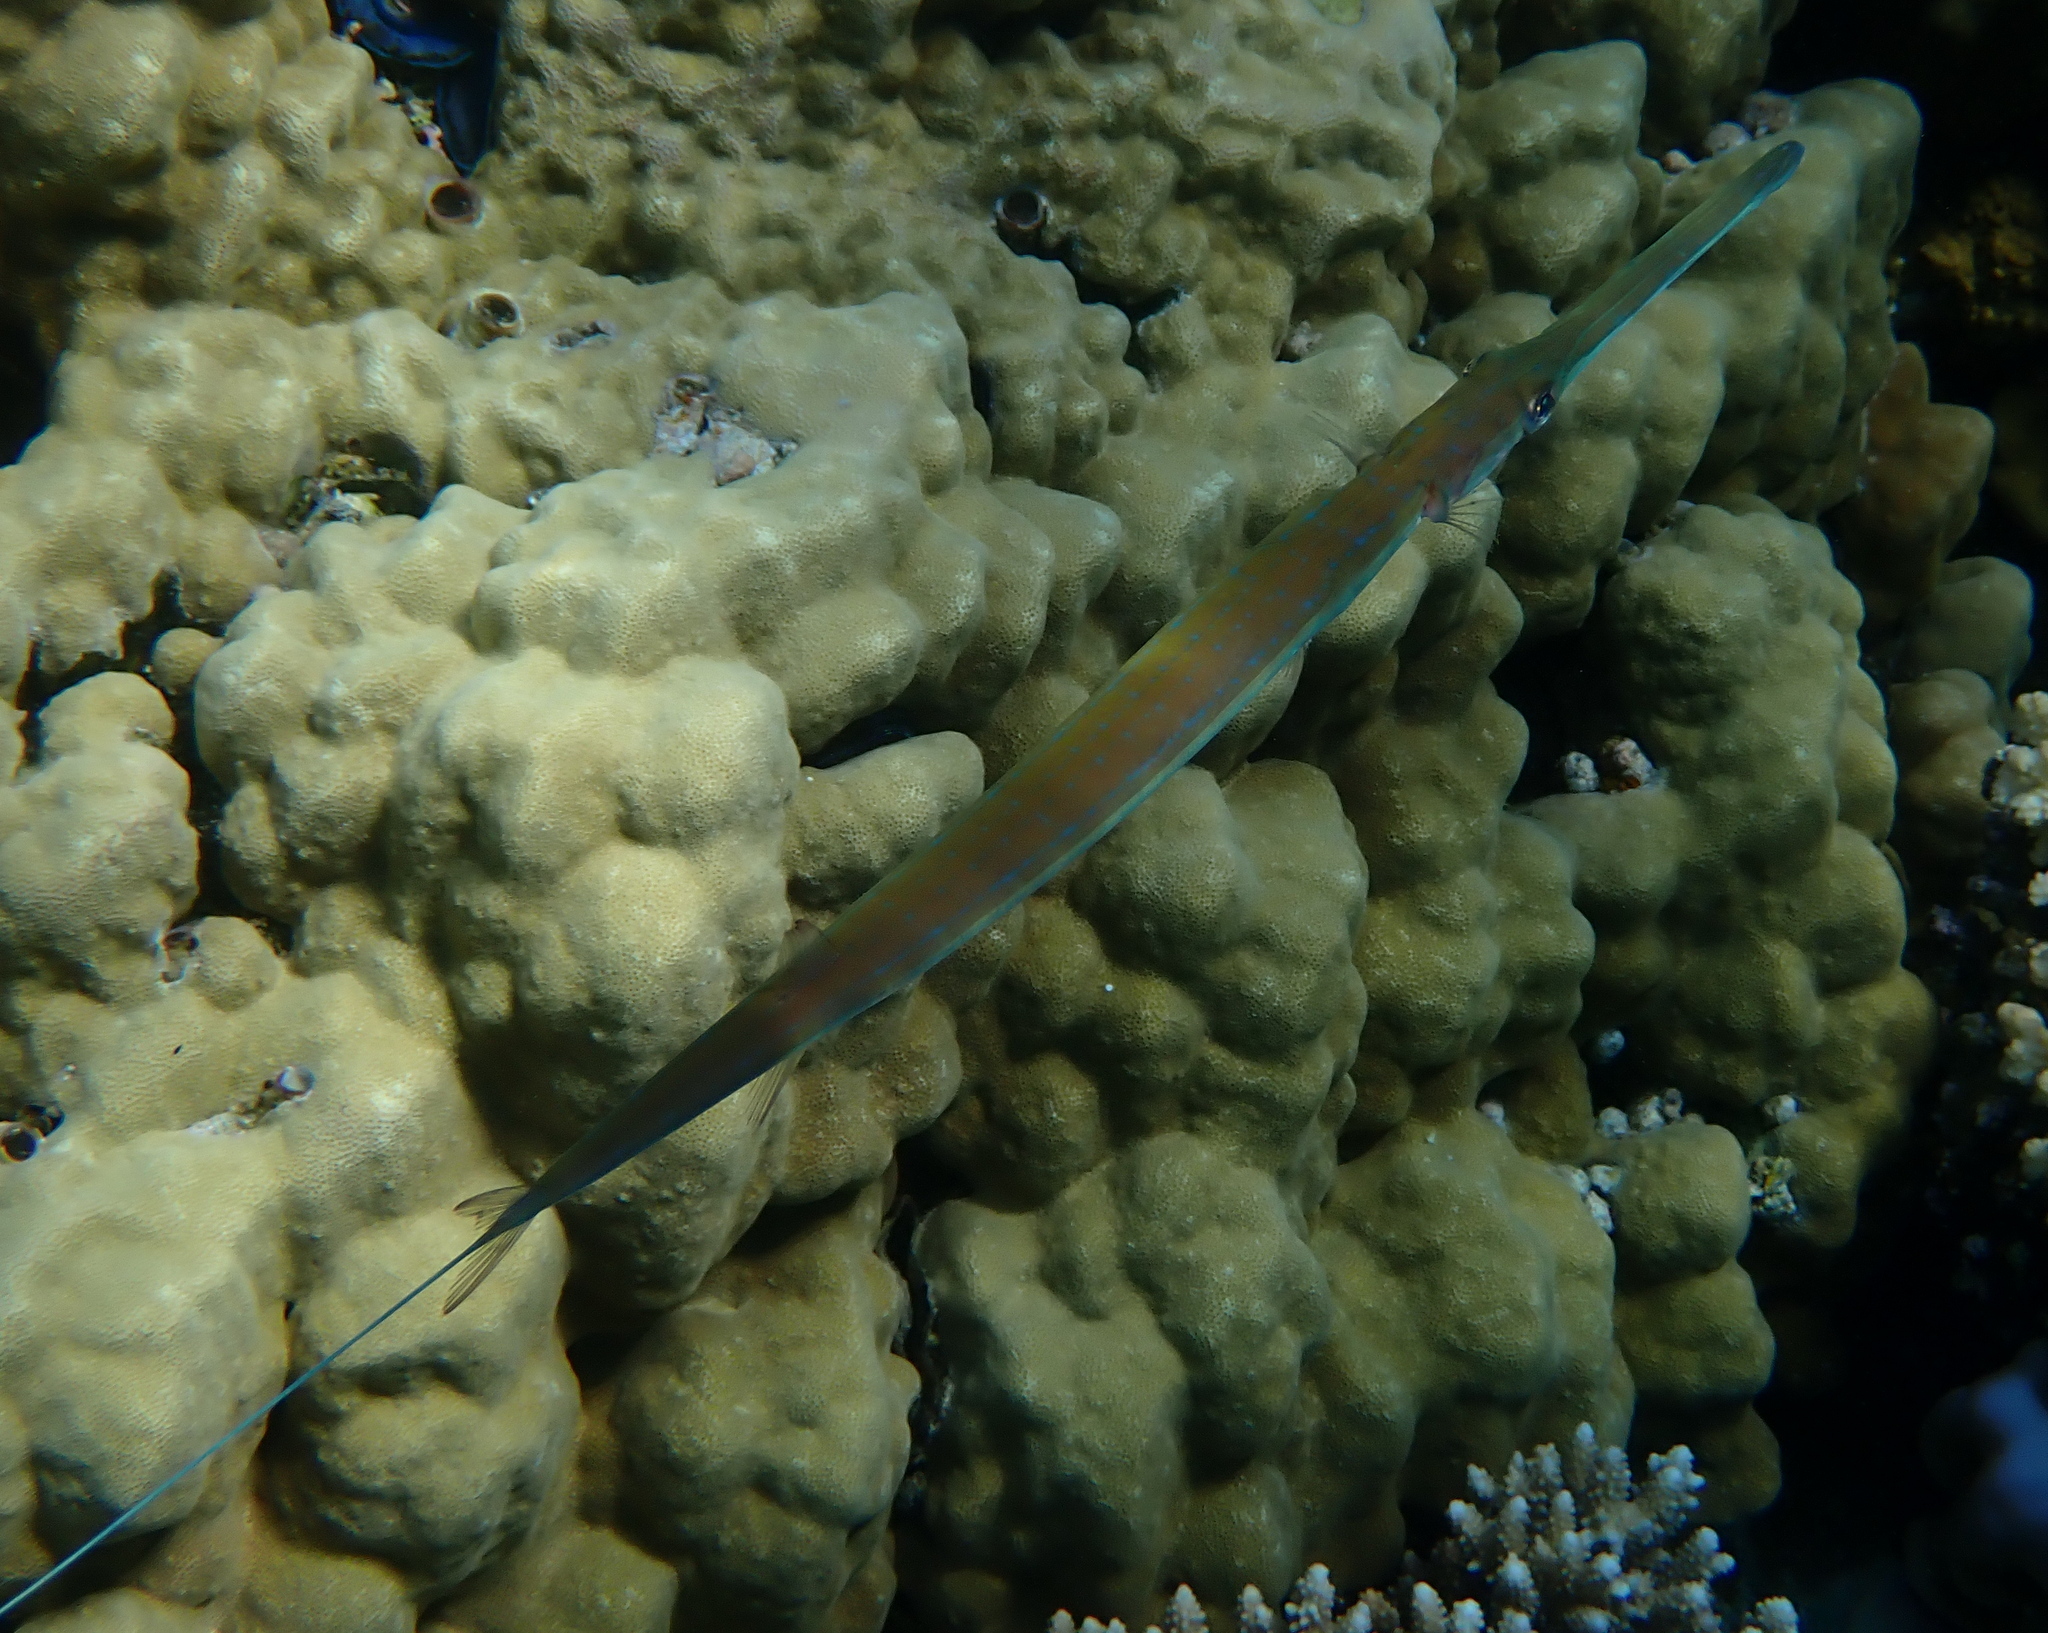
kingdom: Animalia
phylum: Chordata
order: Syngnathiformes
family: Fistulariidae
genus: Fistularia
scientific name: Fistularia commersonii
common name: Bluespotted cornetfish
